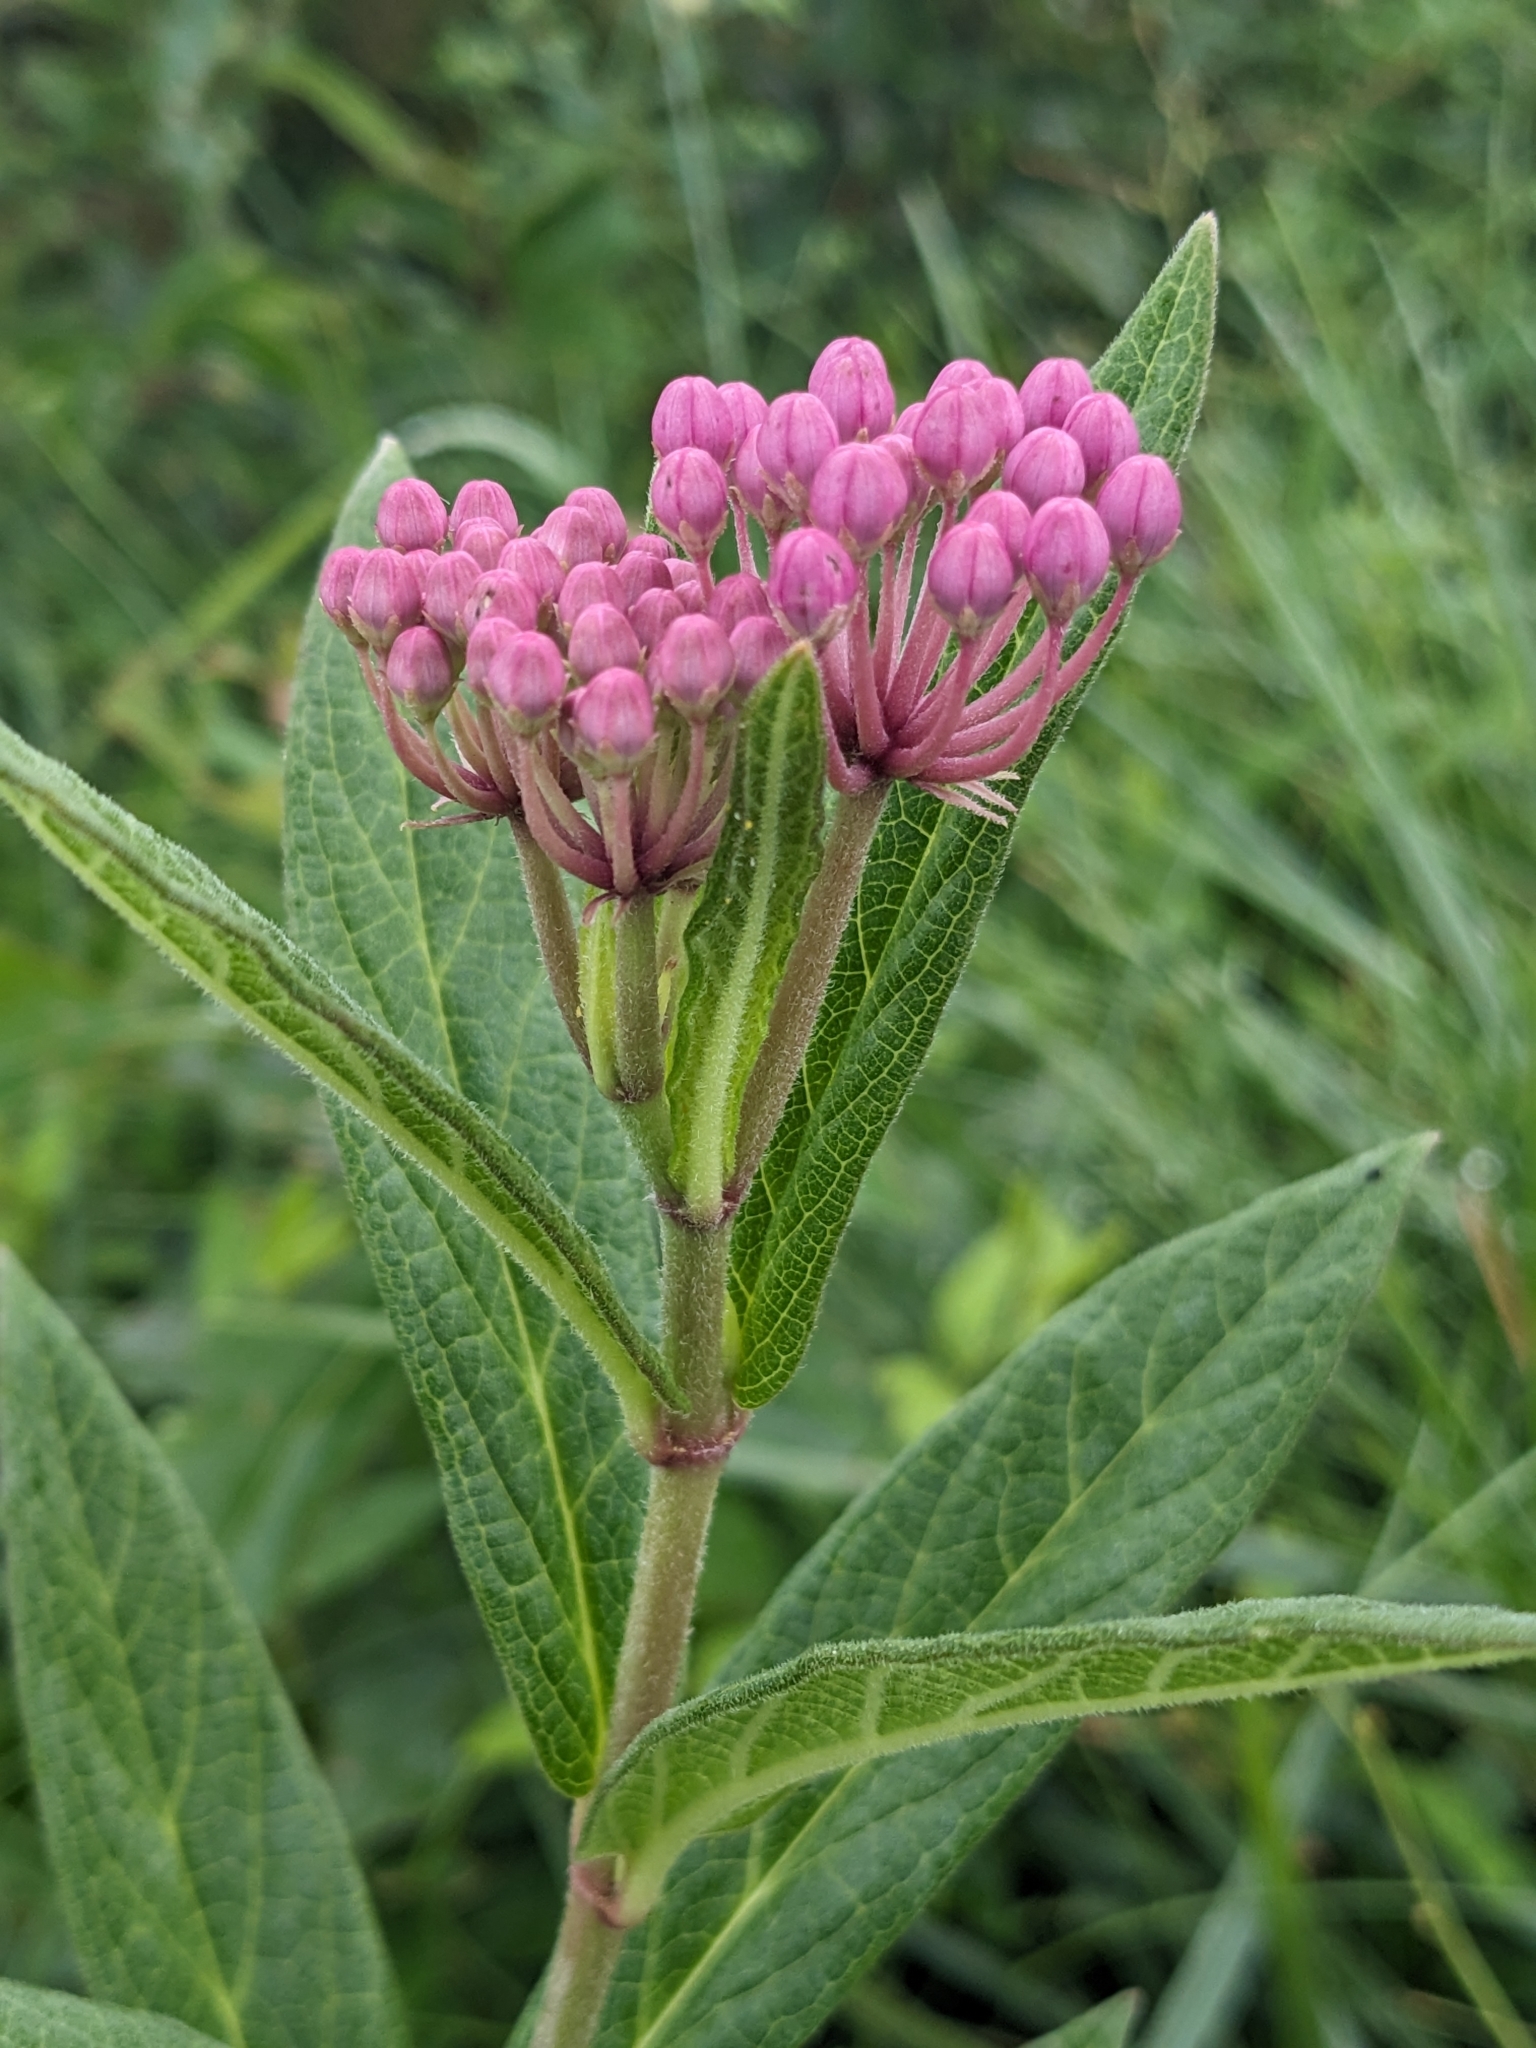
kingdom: Plantae
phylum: Tracheophyta
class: Magnoliopsida
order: Gentianales
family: Apocynaceae
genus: Asclepias
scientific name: Asclepias incarnata
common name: Swamp milkweed
